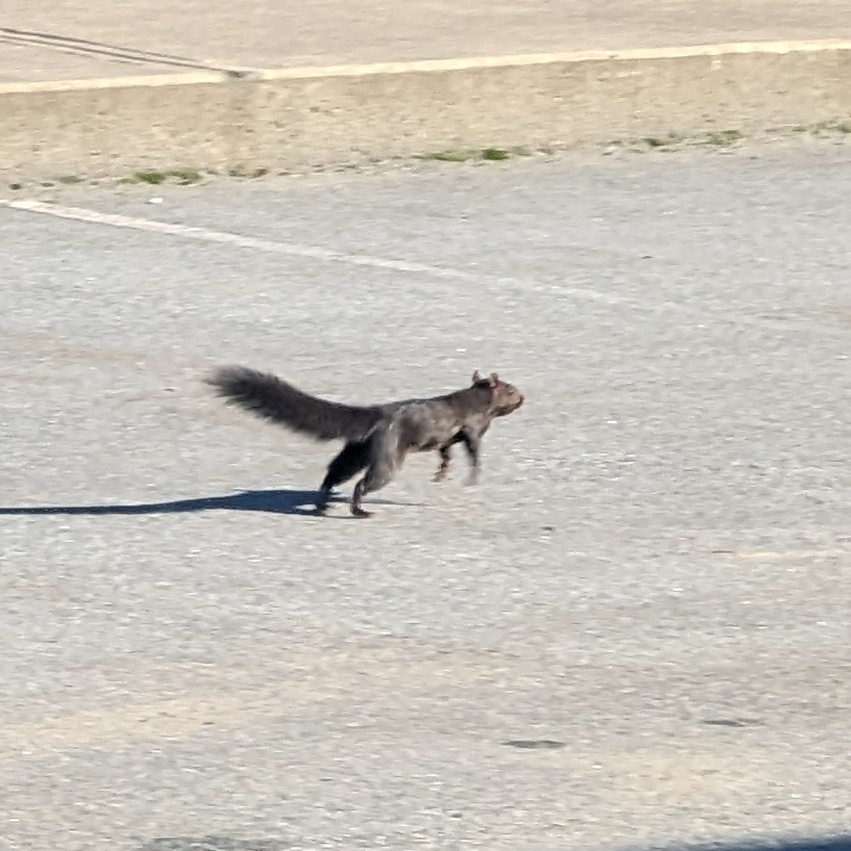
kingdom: Animalia
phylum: Chordata
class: Mammalia
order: Rodentia
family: Sciuridae
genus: Sciurus
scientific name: Sciurus carolinensis
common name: Eastern gray squirrel
